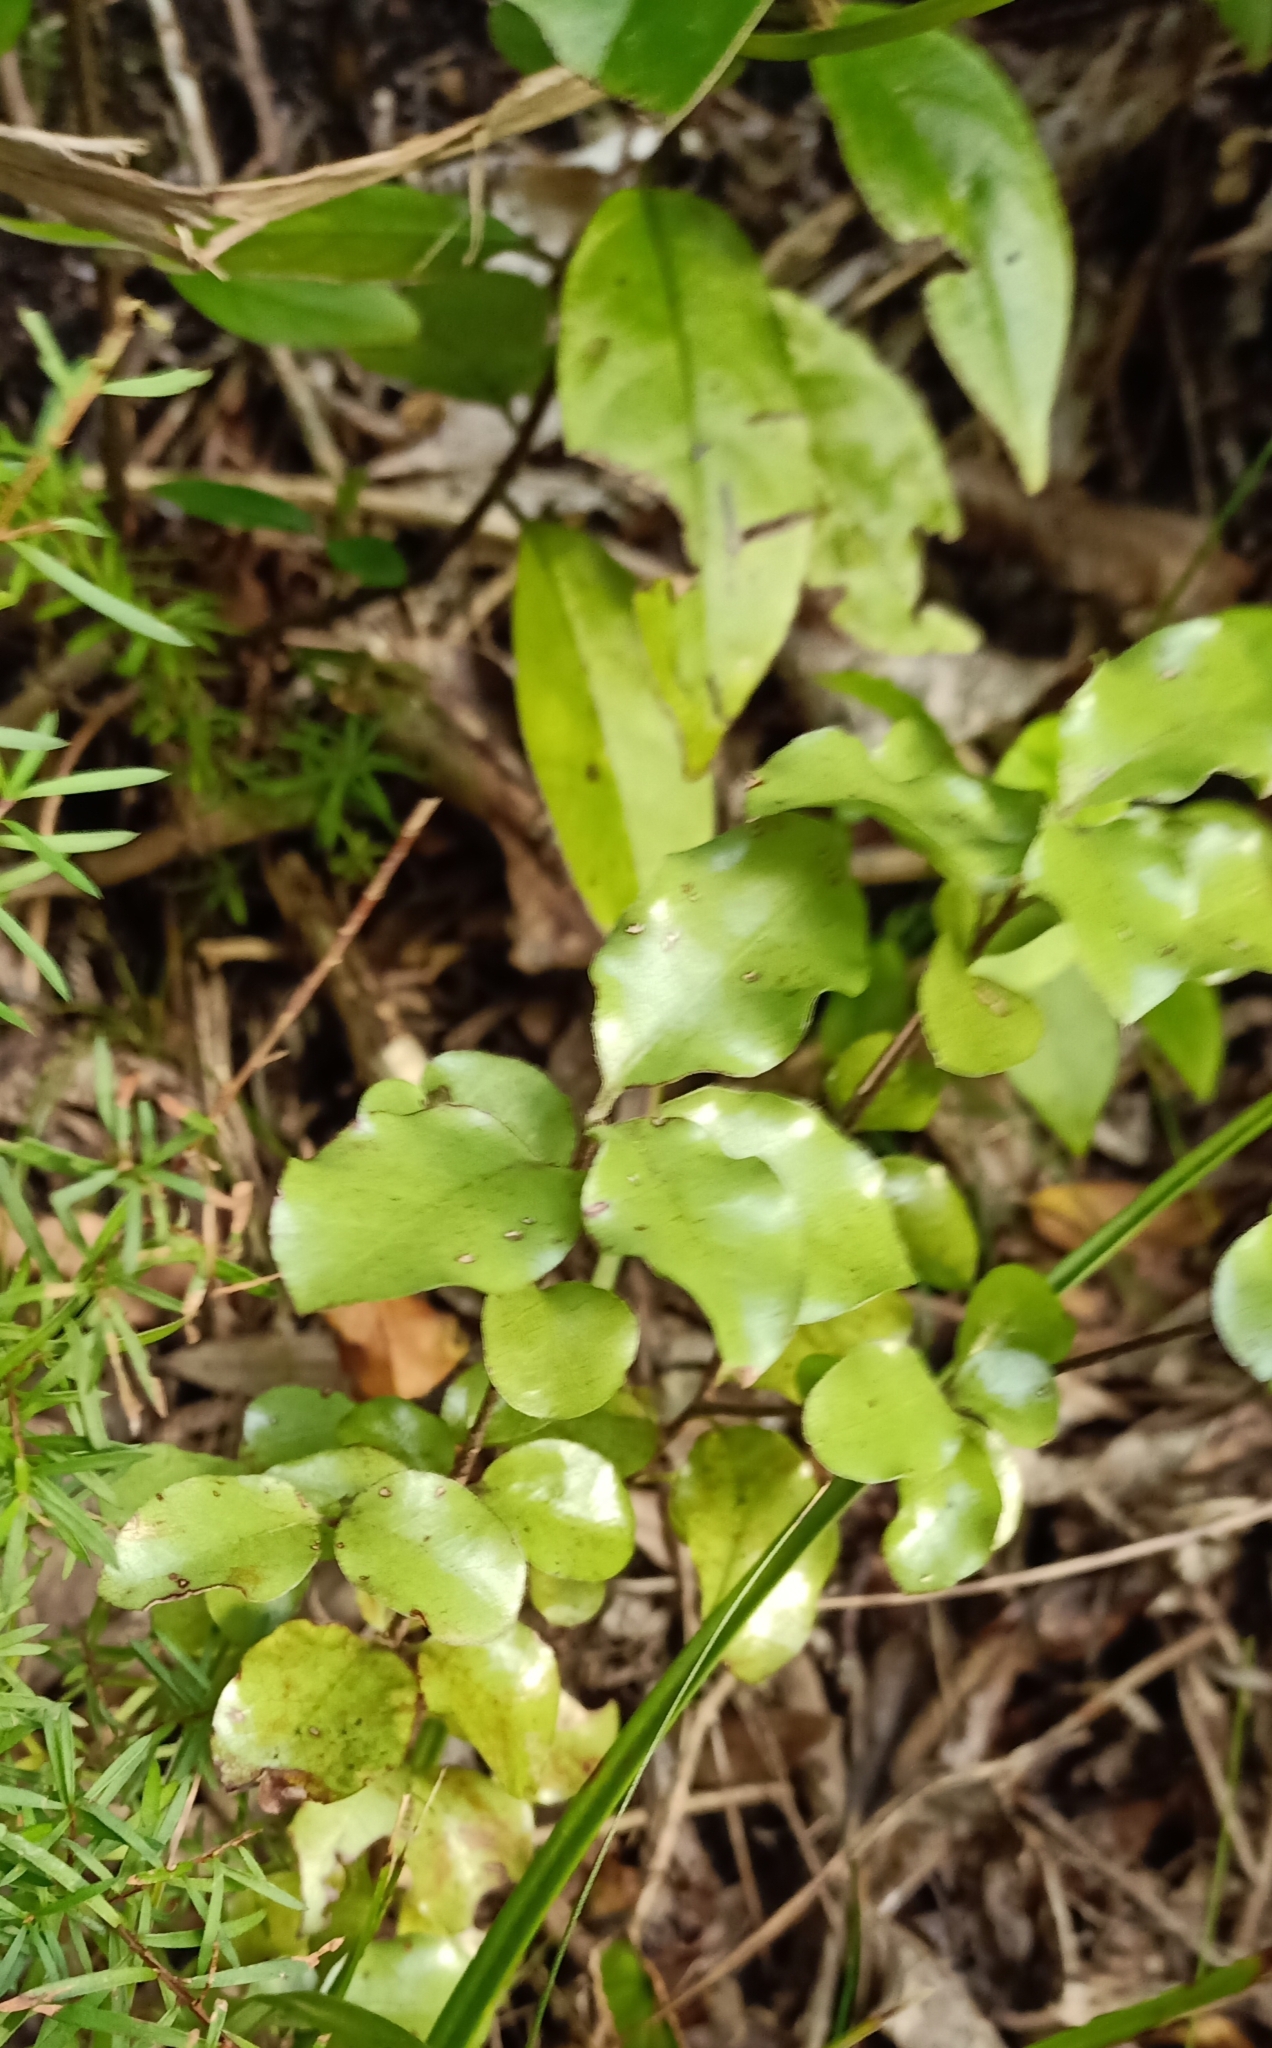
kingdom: Plantae
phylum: Tracheophyta
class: Magnoliopsida
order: Apiales
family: Pittosporaceae
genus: Pittosporum
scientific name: Pittosporum tenuifolium
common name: Kohuhu
